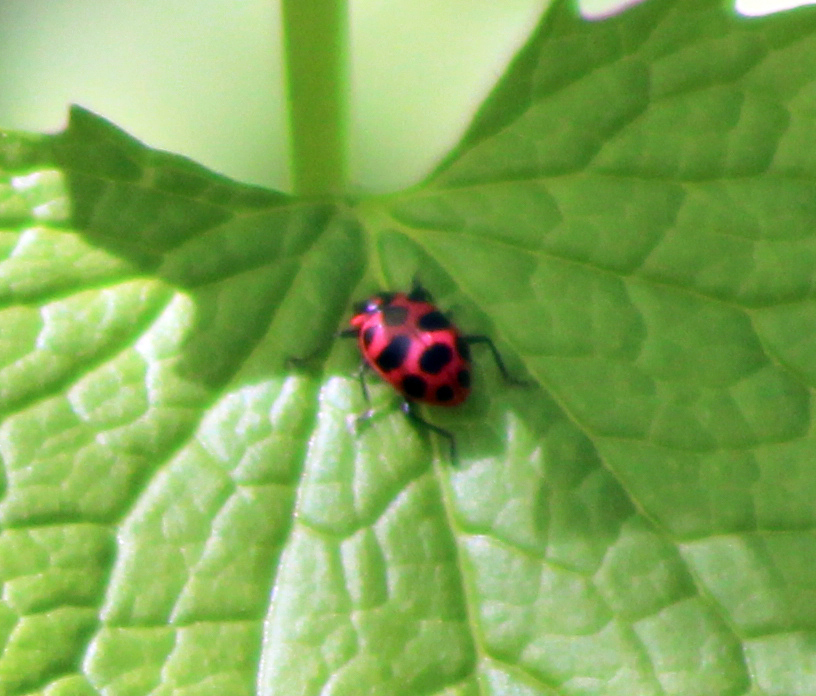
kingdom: Animalia
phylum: Arthropoda
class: Insecta
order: Coleoptera
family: Coccinellidae
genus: Coleomegilla
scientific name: Coleomegilla maculata
